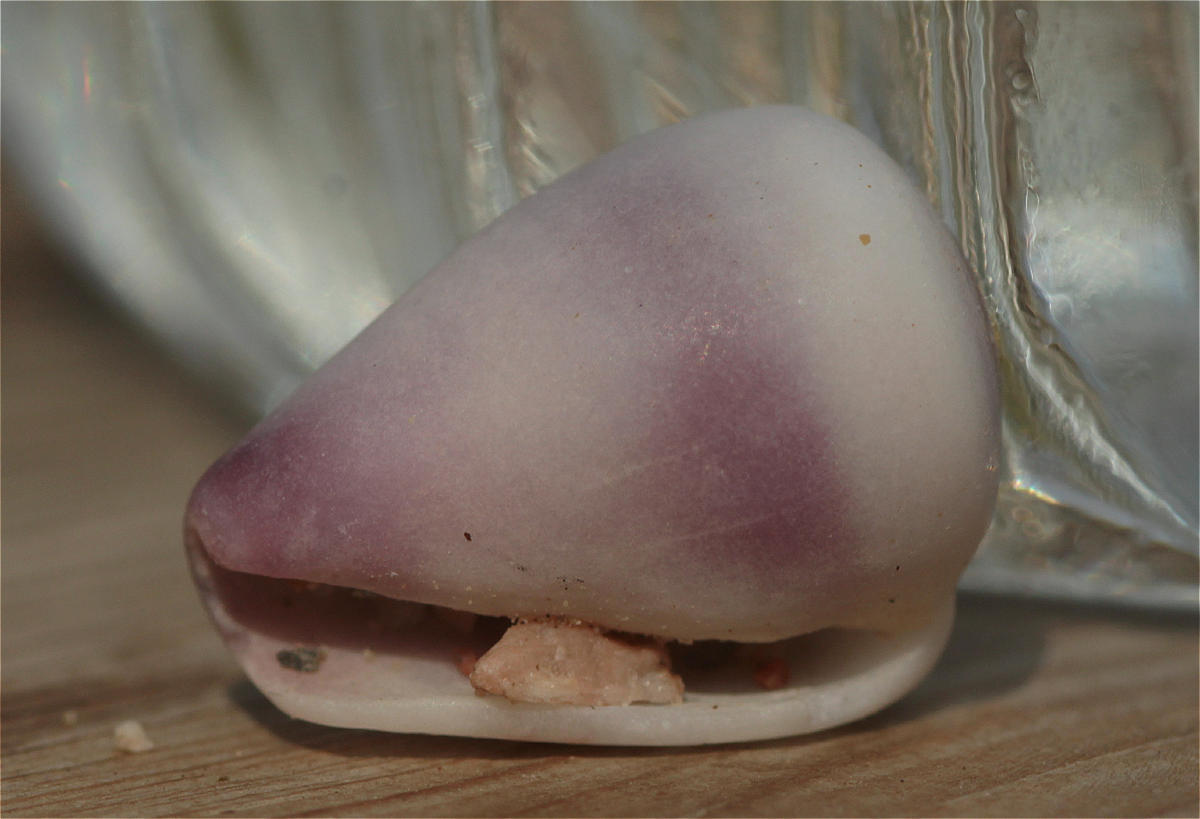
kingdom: Animalia
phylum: Mollusca
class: Gastropoda
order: Neogastropoda
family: Conidae
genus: Conus
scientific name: Conus parvatus
